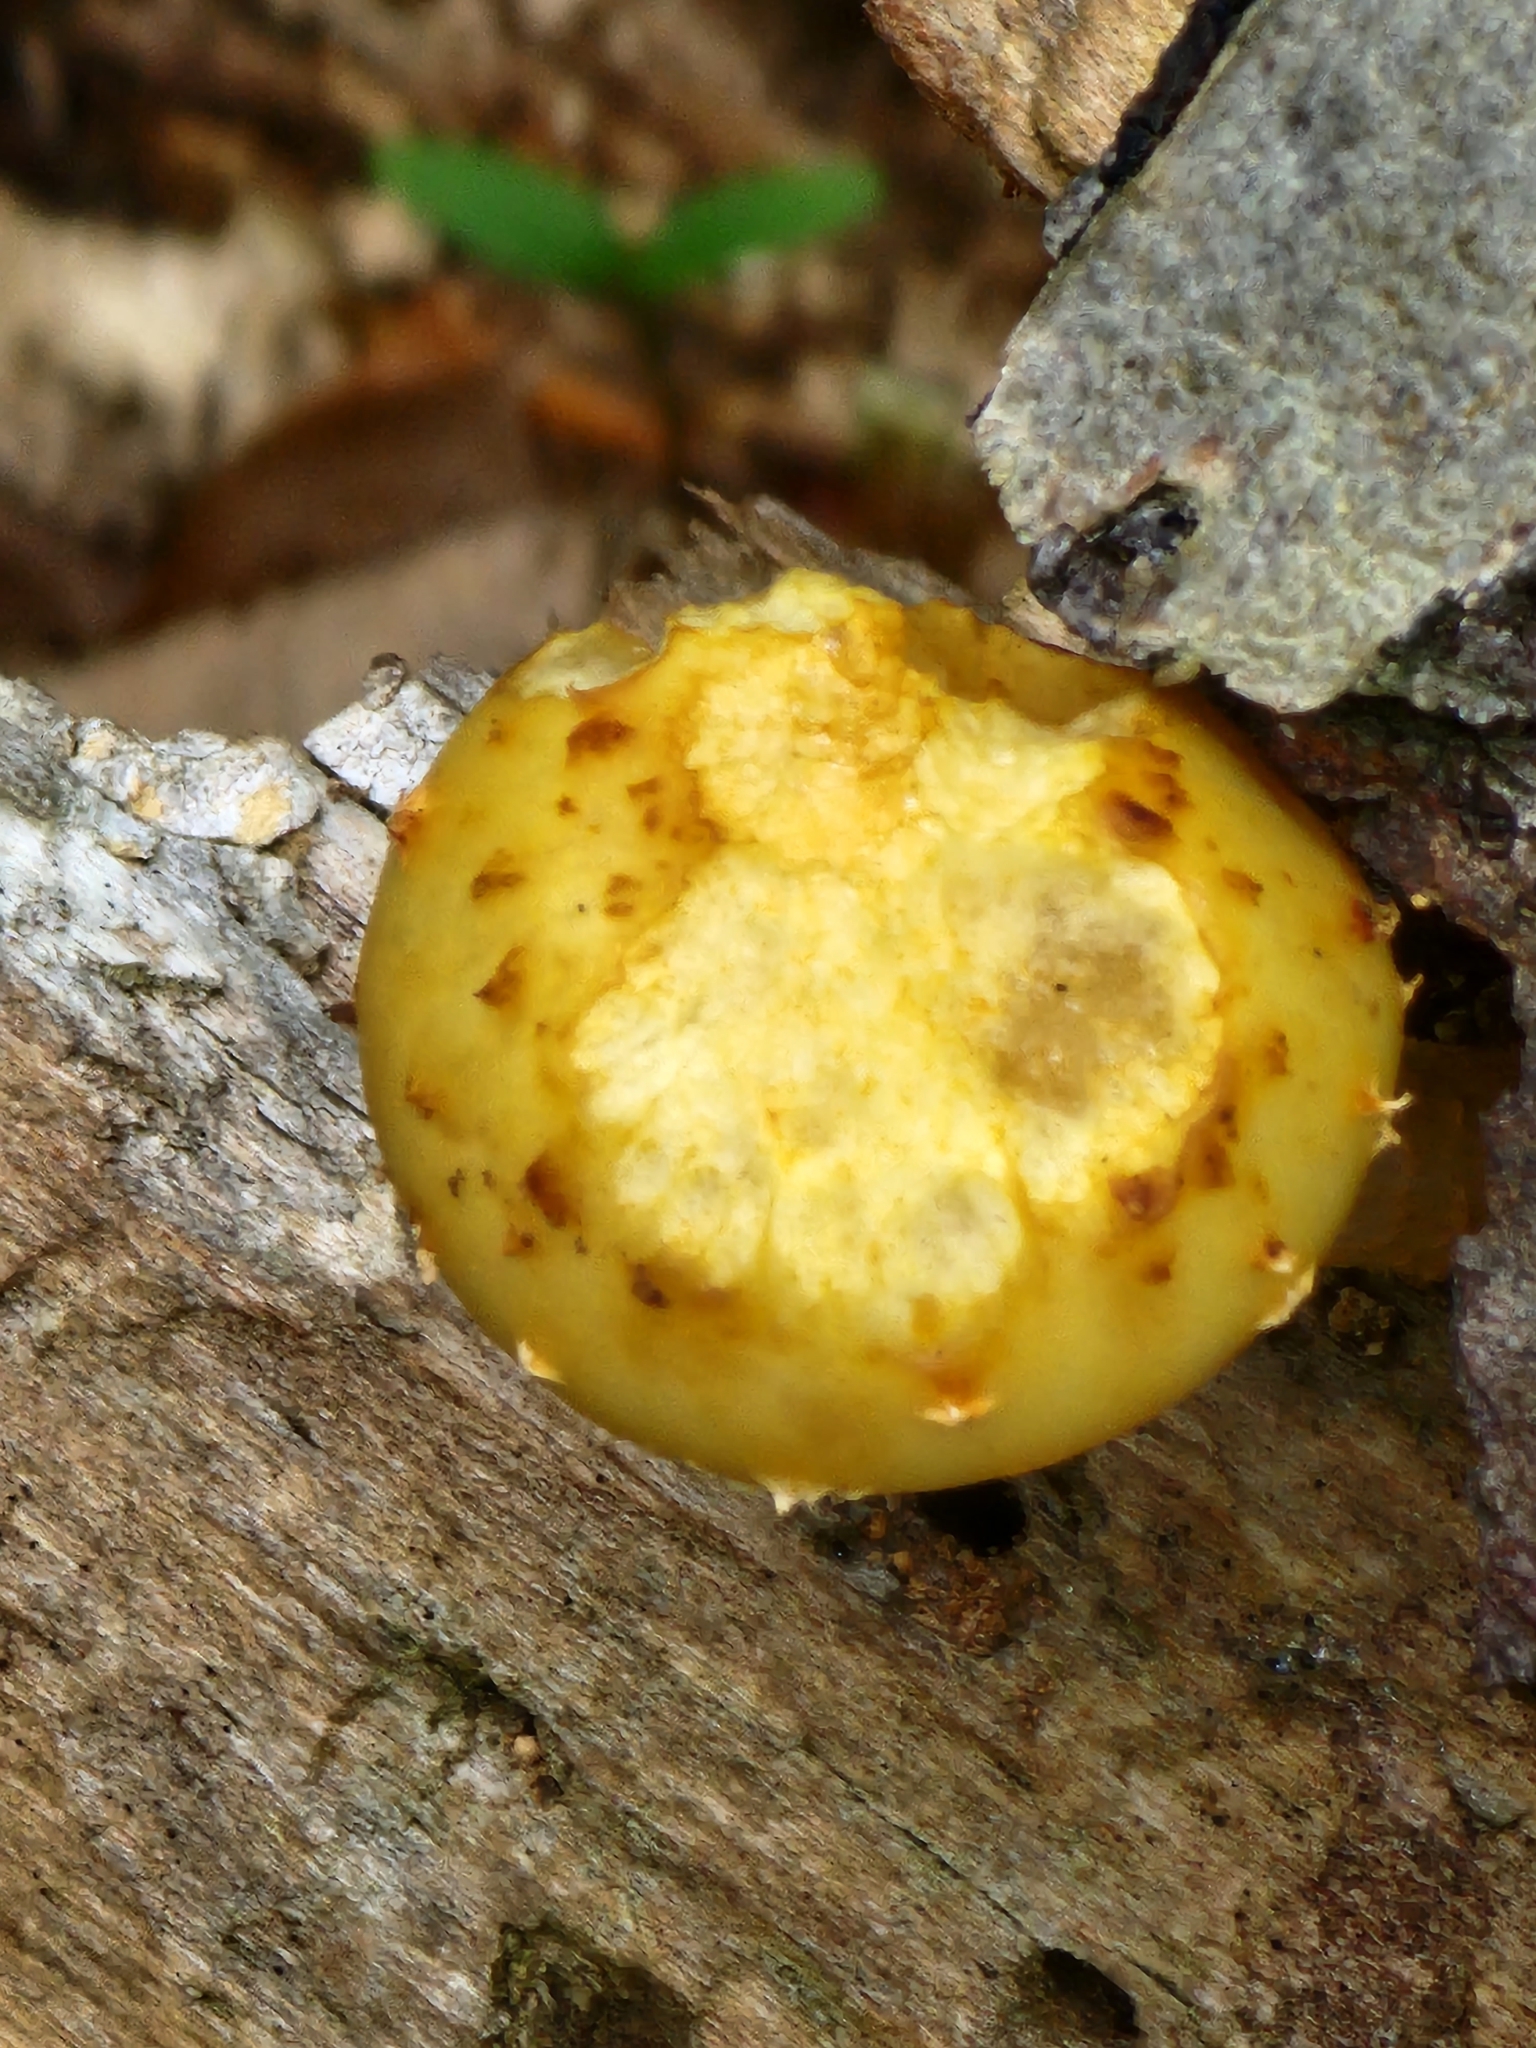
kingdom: Fungi
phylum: Basidiomycota
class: Agaricomycetes
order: Agaricales
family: Strophariaceae
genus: Pholiota
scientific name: Pholiota aurivella
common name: Golden scalycap
